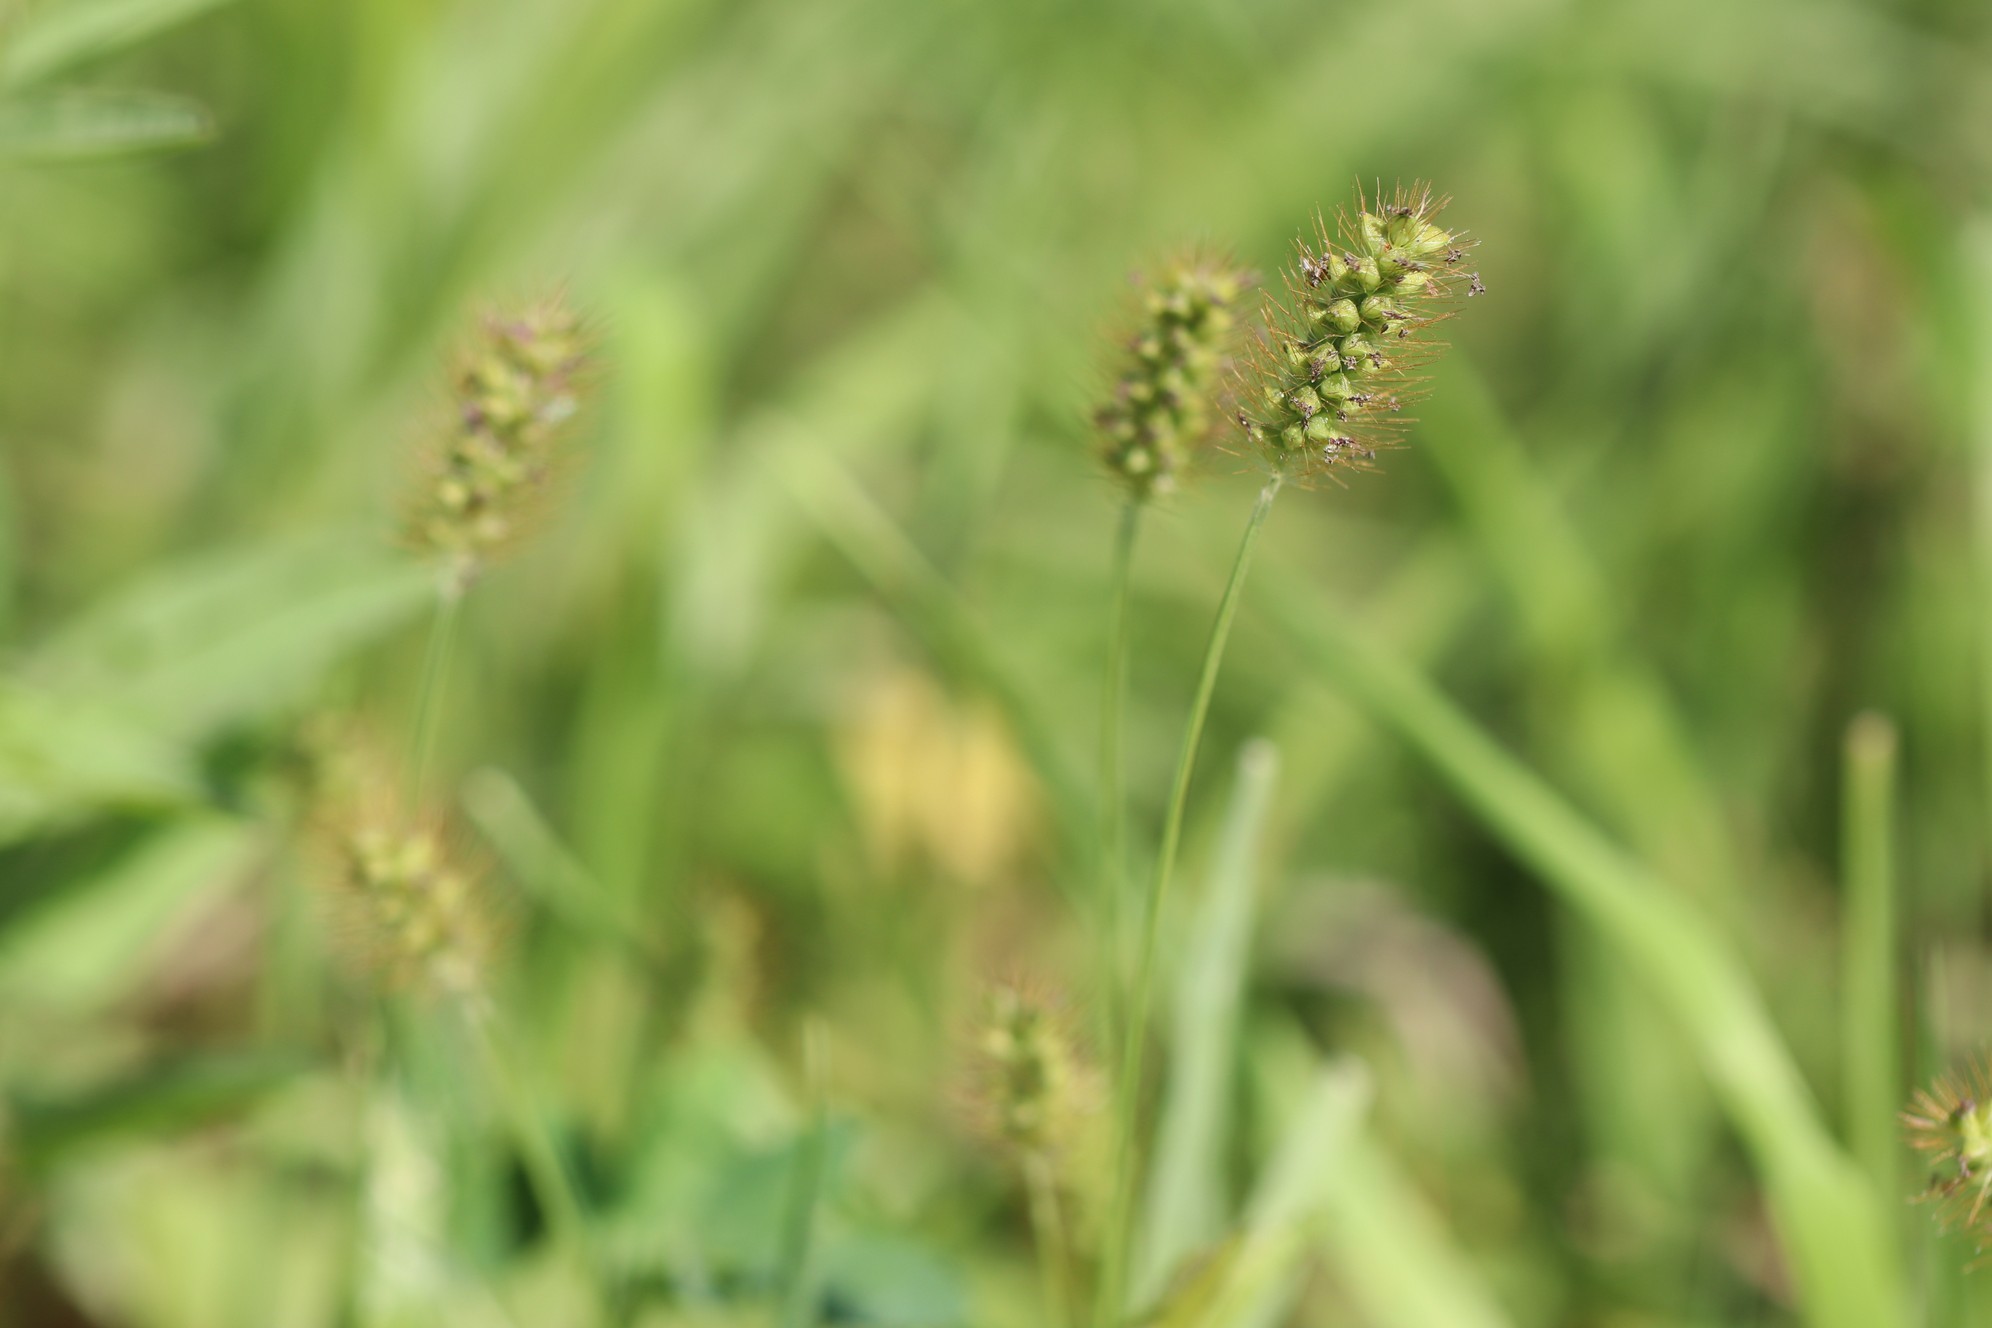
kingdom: Plantae
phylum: Tracheophyta
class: Liliopsida
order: Poales
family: Poaceae
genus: Setaria
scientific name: Setaria pumila
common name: Yellow bristle-grass
